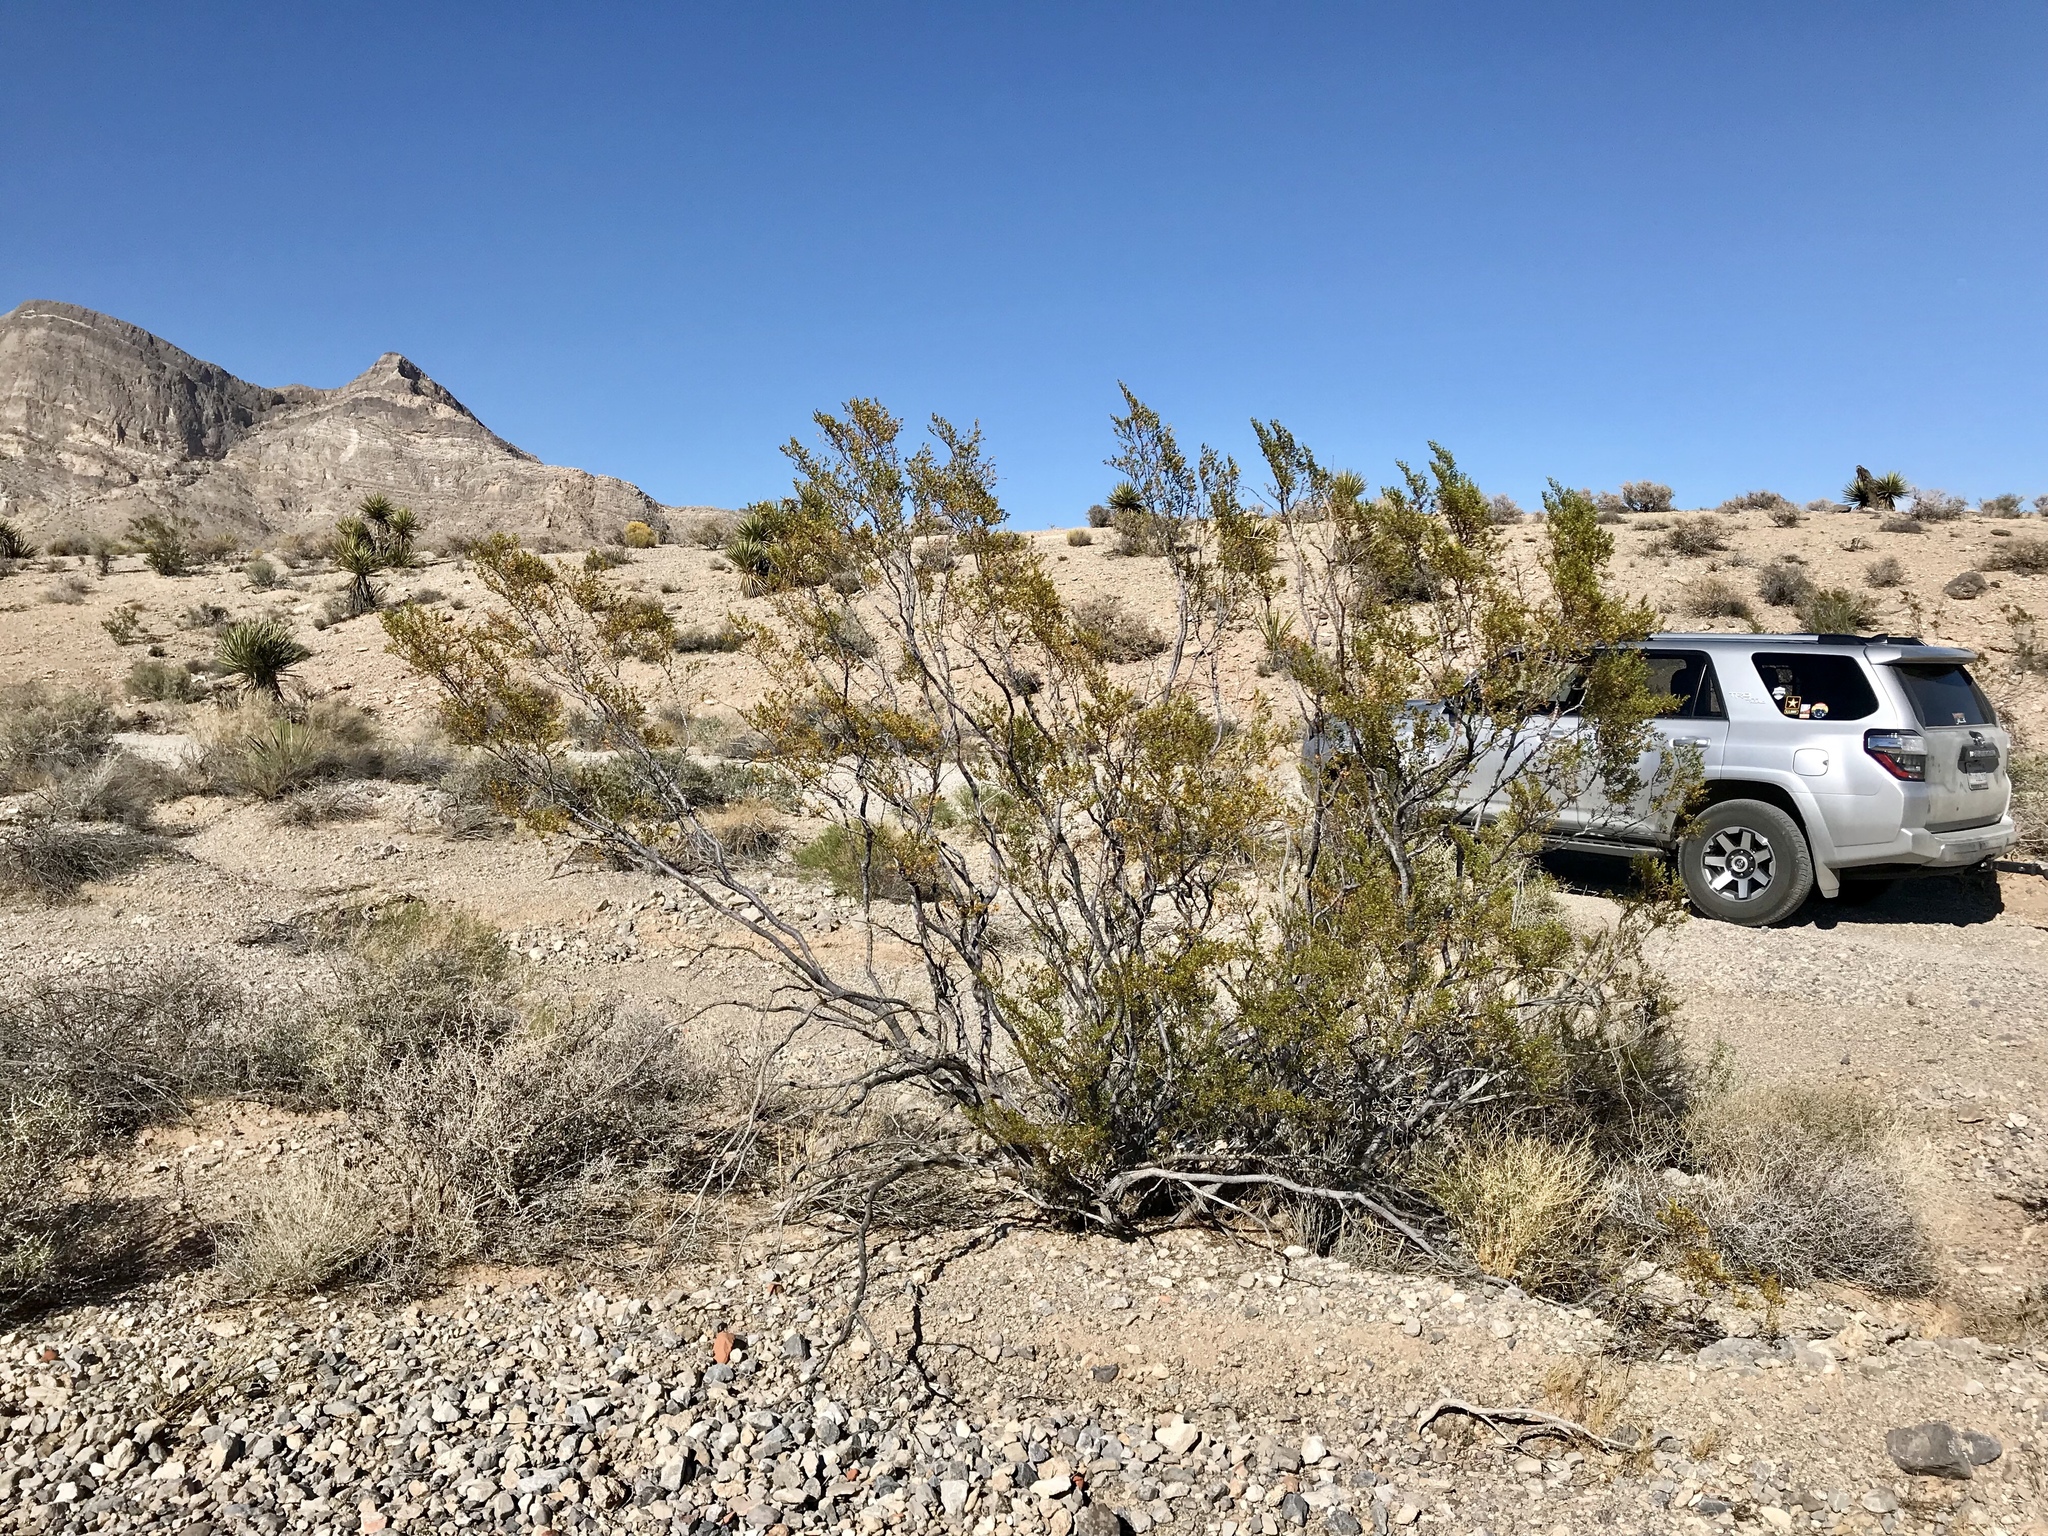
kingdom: Plantae
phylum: Tracheophyta
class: Magnoliopsida
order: Zygophyllales
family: Zygophyllaceae
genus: Larrea
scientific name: Larrea tridentata
